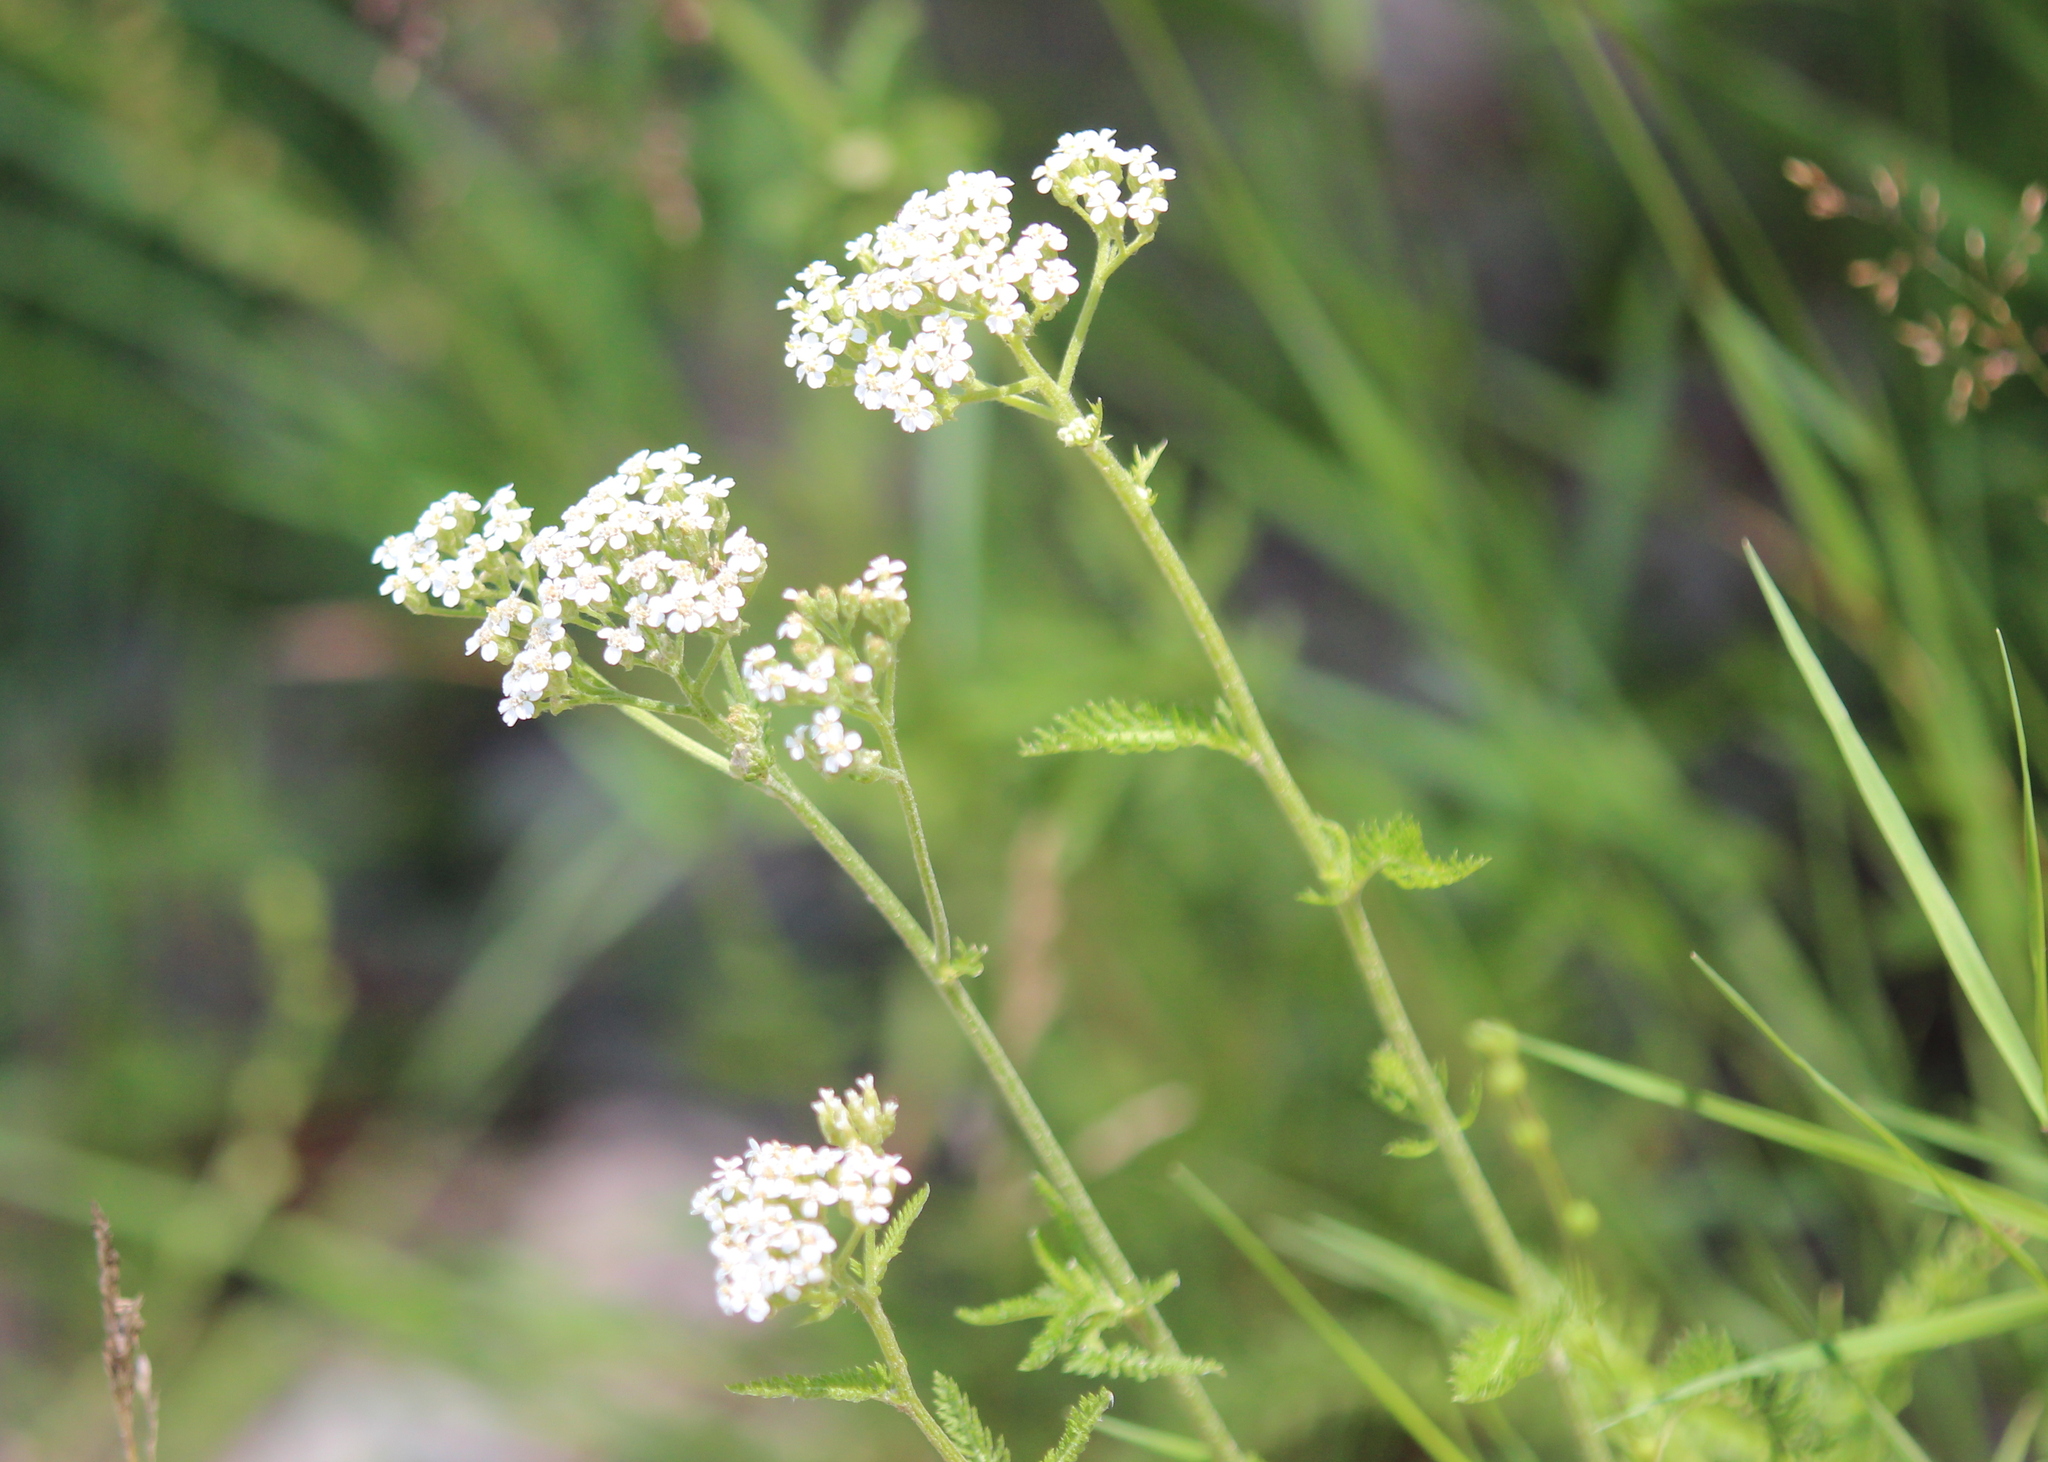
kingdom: Plantae
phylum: Tracheophyta
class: Magnoliopsida
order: Asterales
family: Asteraceae
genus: Achillea
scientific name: Achillea millefolium
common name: Yarrow
